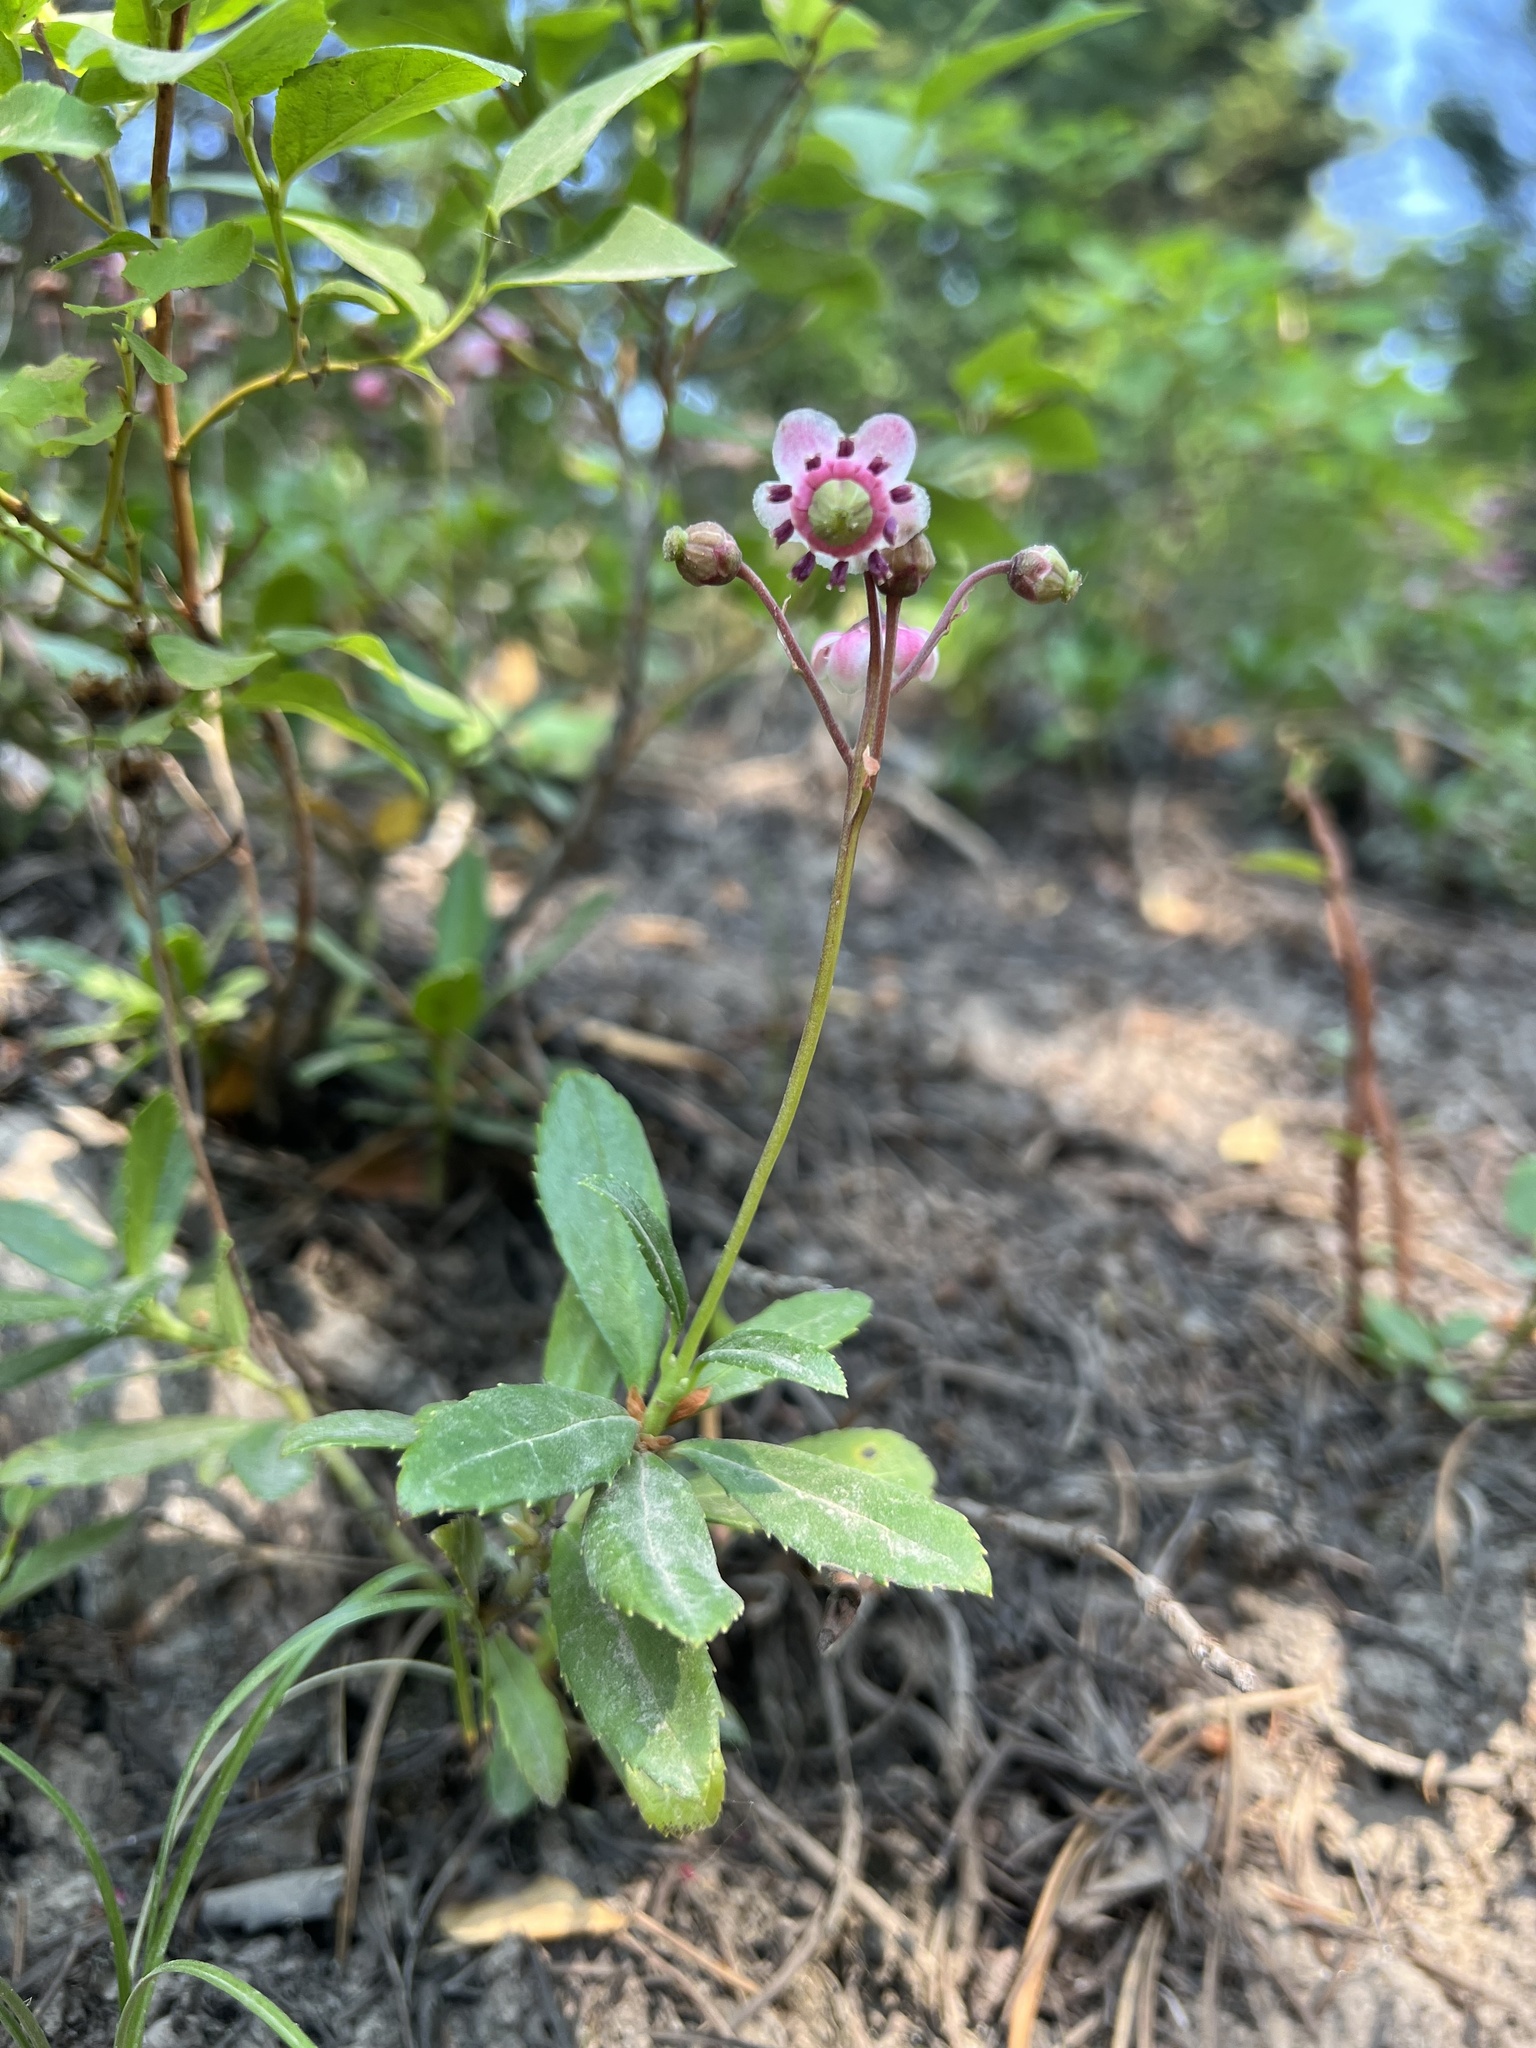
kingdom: Plantae
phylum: Tracheophyta
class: Magnoliopsida
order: Ericales
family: Ericaceae
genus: Chimaphila
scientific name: Chimaphila umbellata
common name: Pipsissewa
